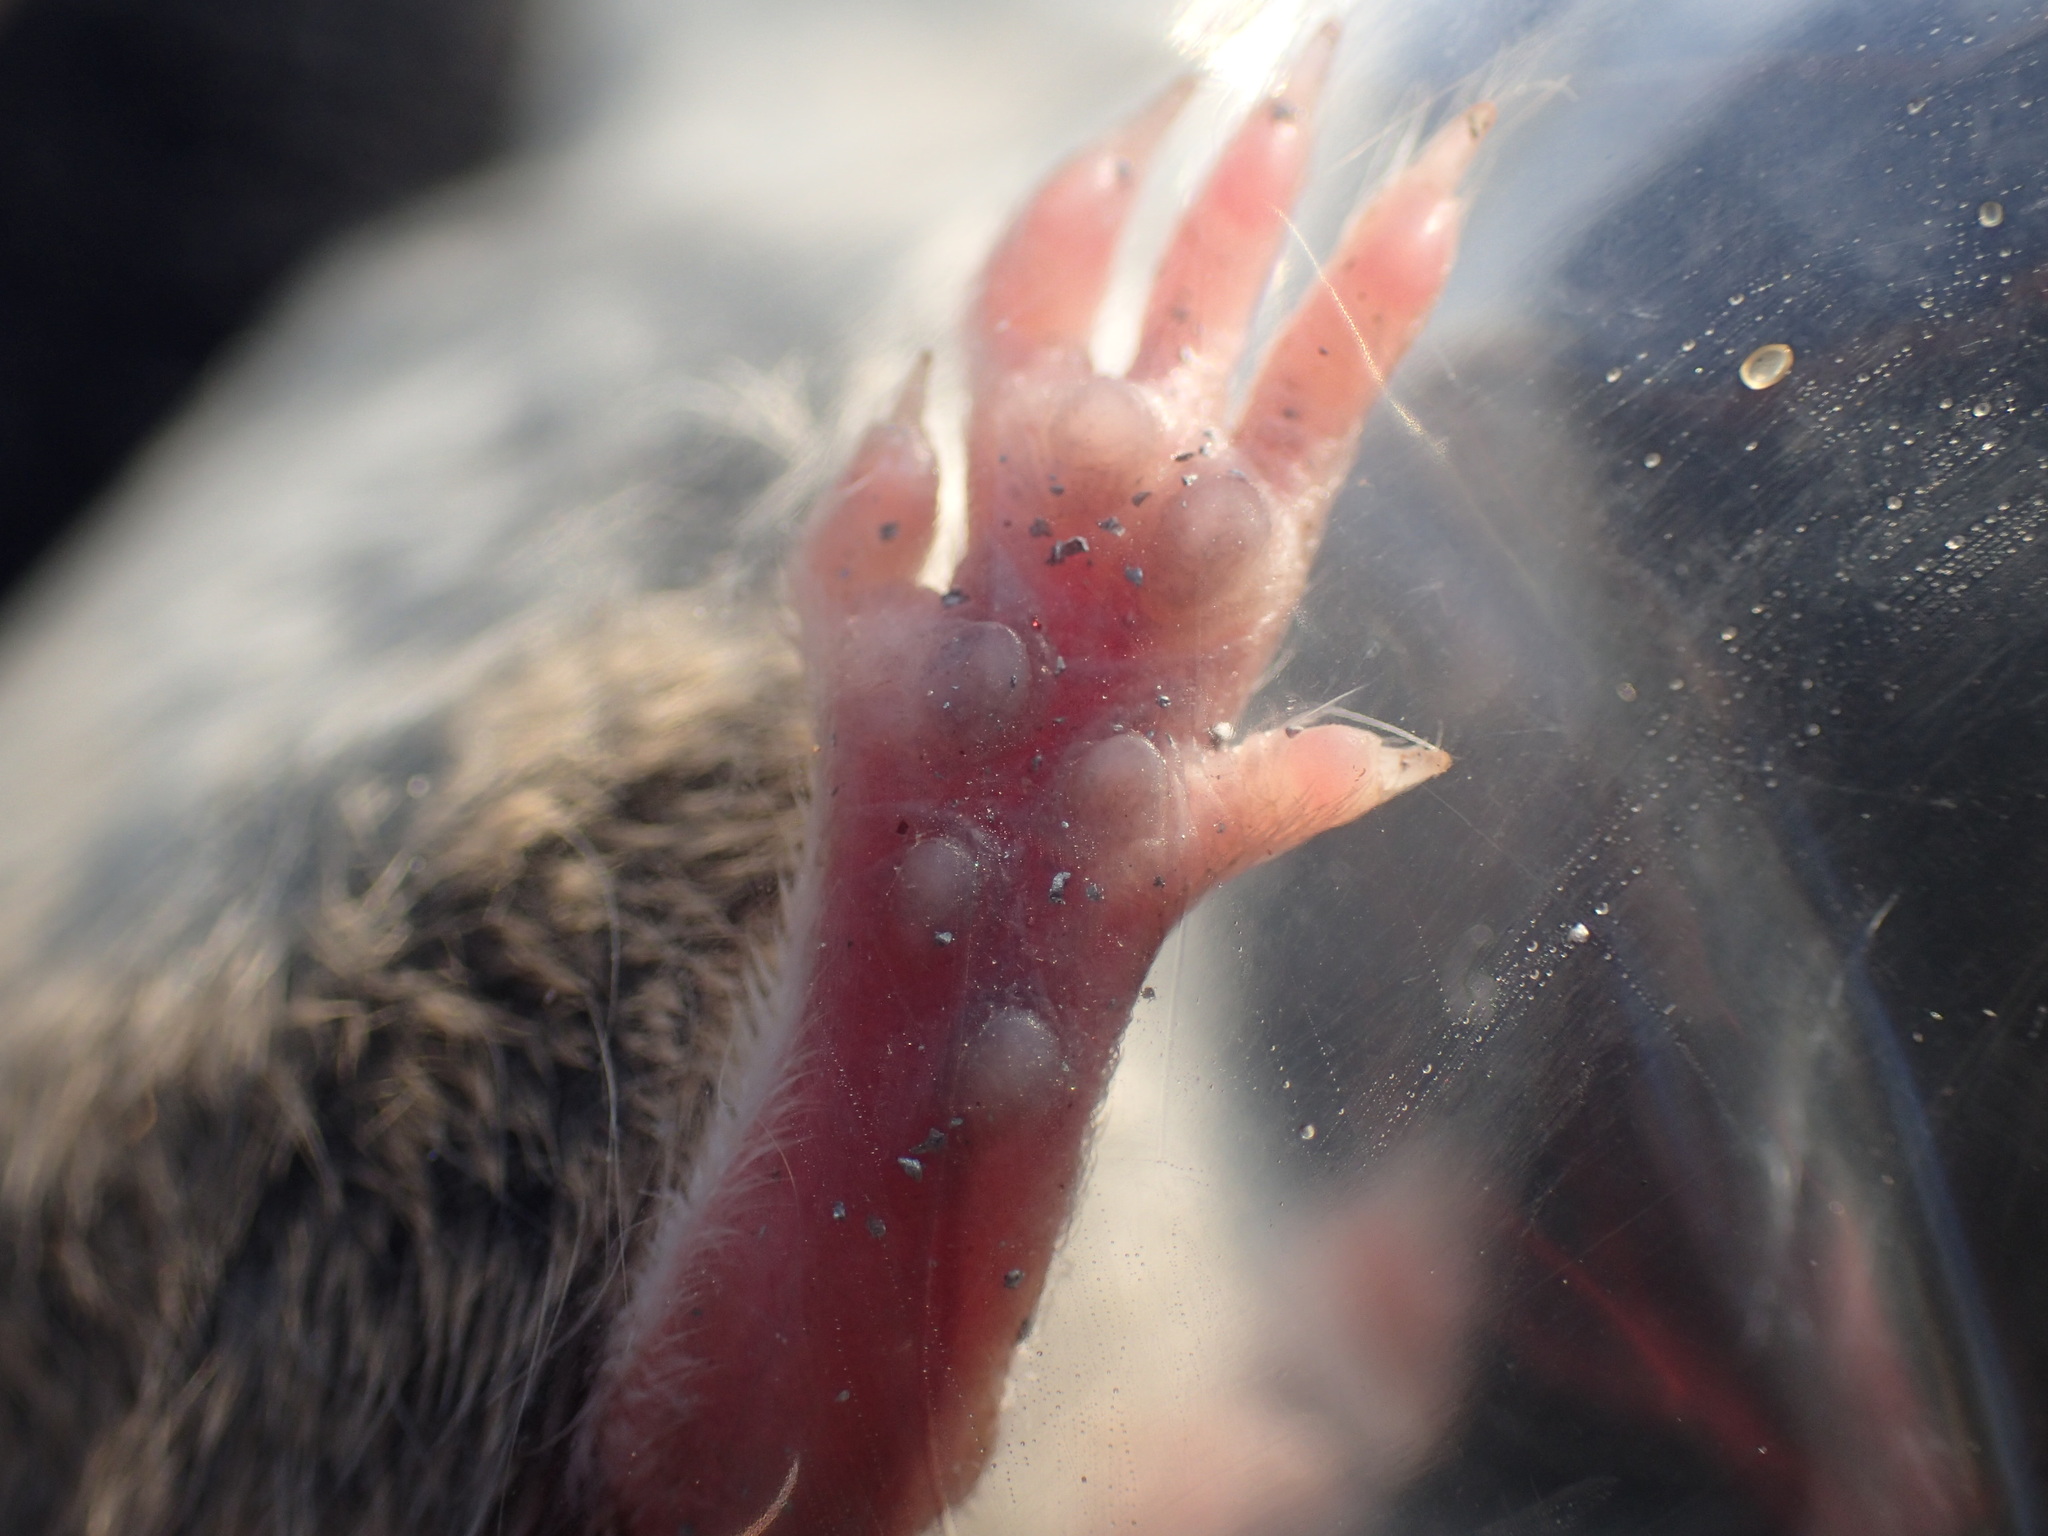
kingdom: Animalia
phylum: Chordata
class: Mammalia
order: Rodentia
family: Muridae
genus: Aethomys
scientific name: Aethomys chrysophilus
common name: Red veld aethomys
